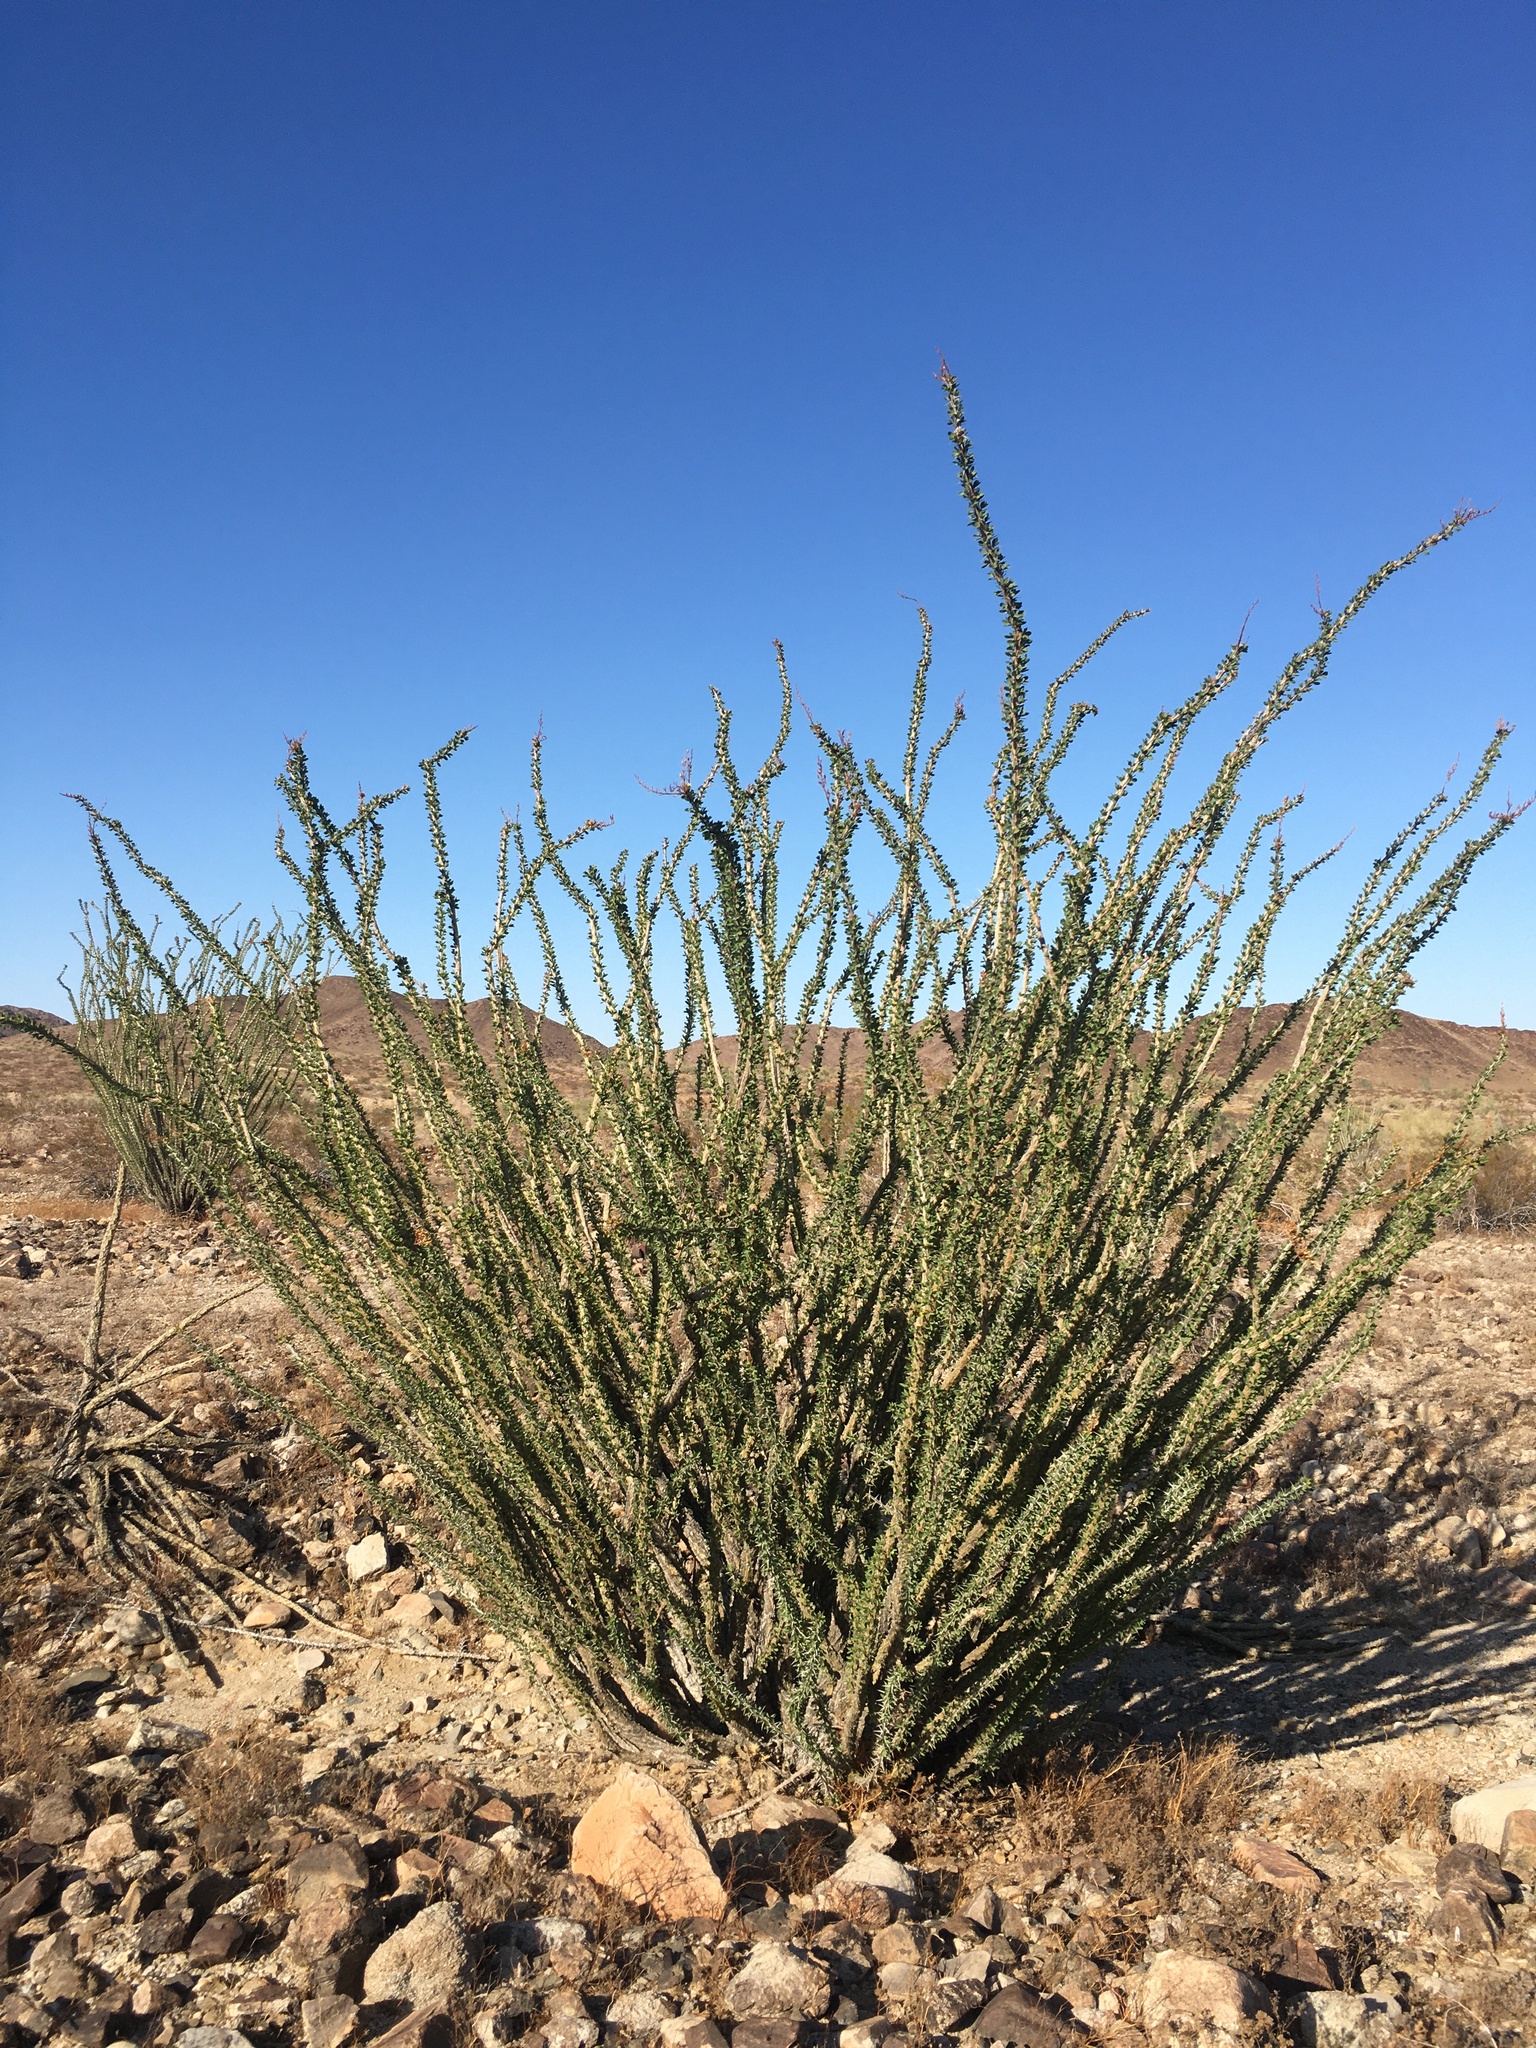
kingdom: Plantae
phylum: Tracheophyta
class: Magnoliopsida
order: Ericales
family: Fouquieriaceae
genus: Fouquieria
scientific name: Fouquieria splendens
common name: Vine-cactus
